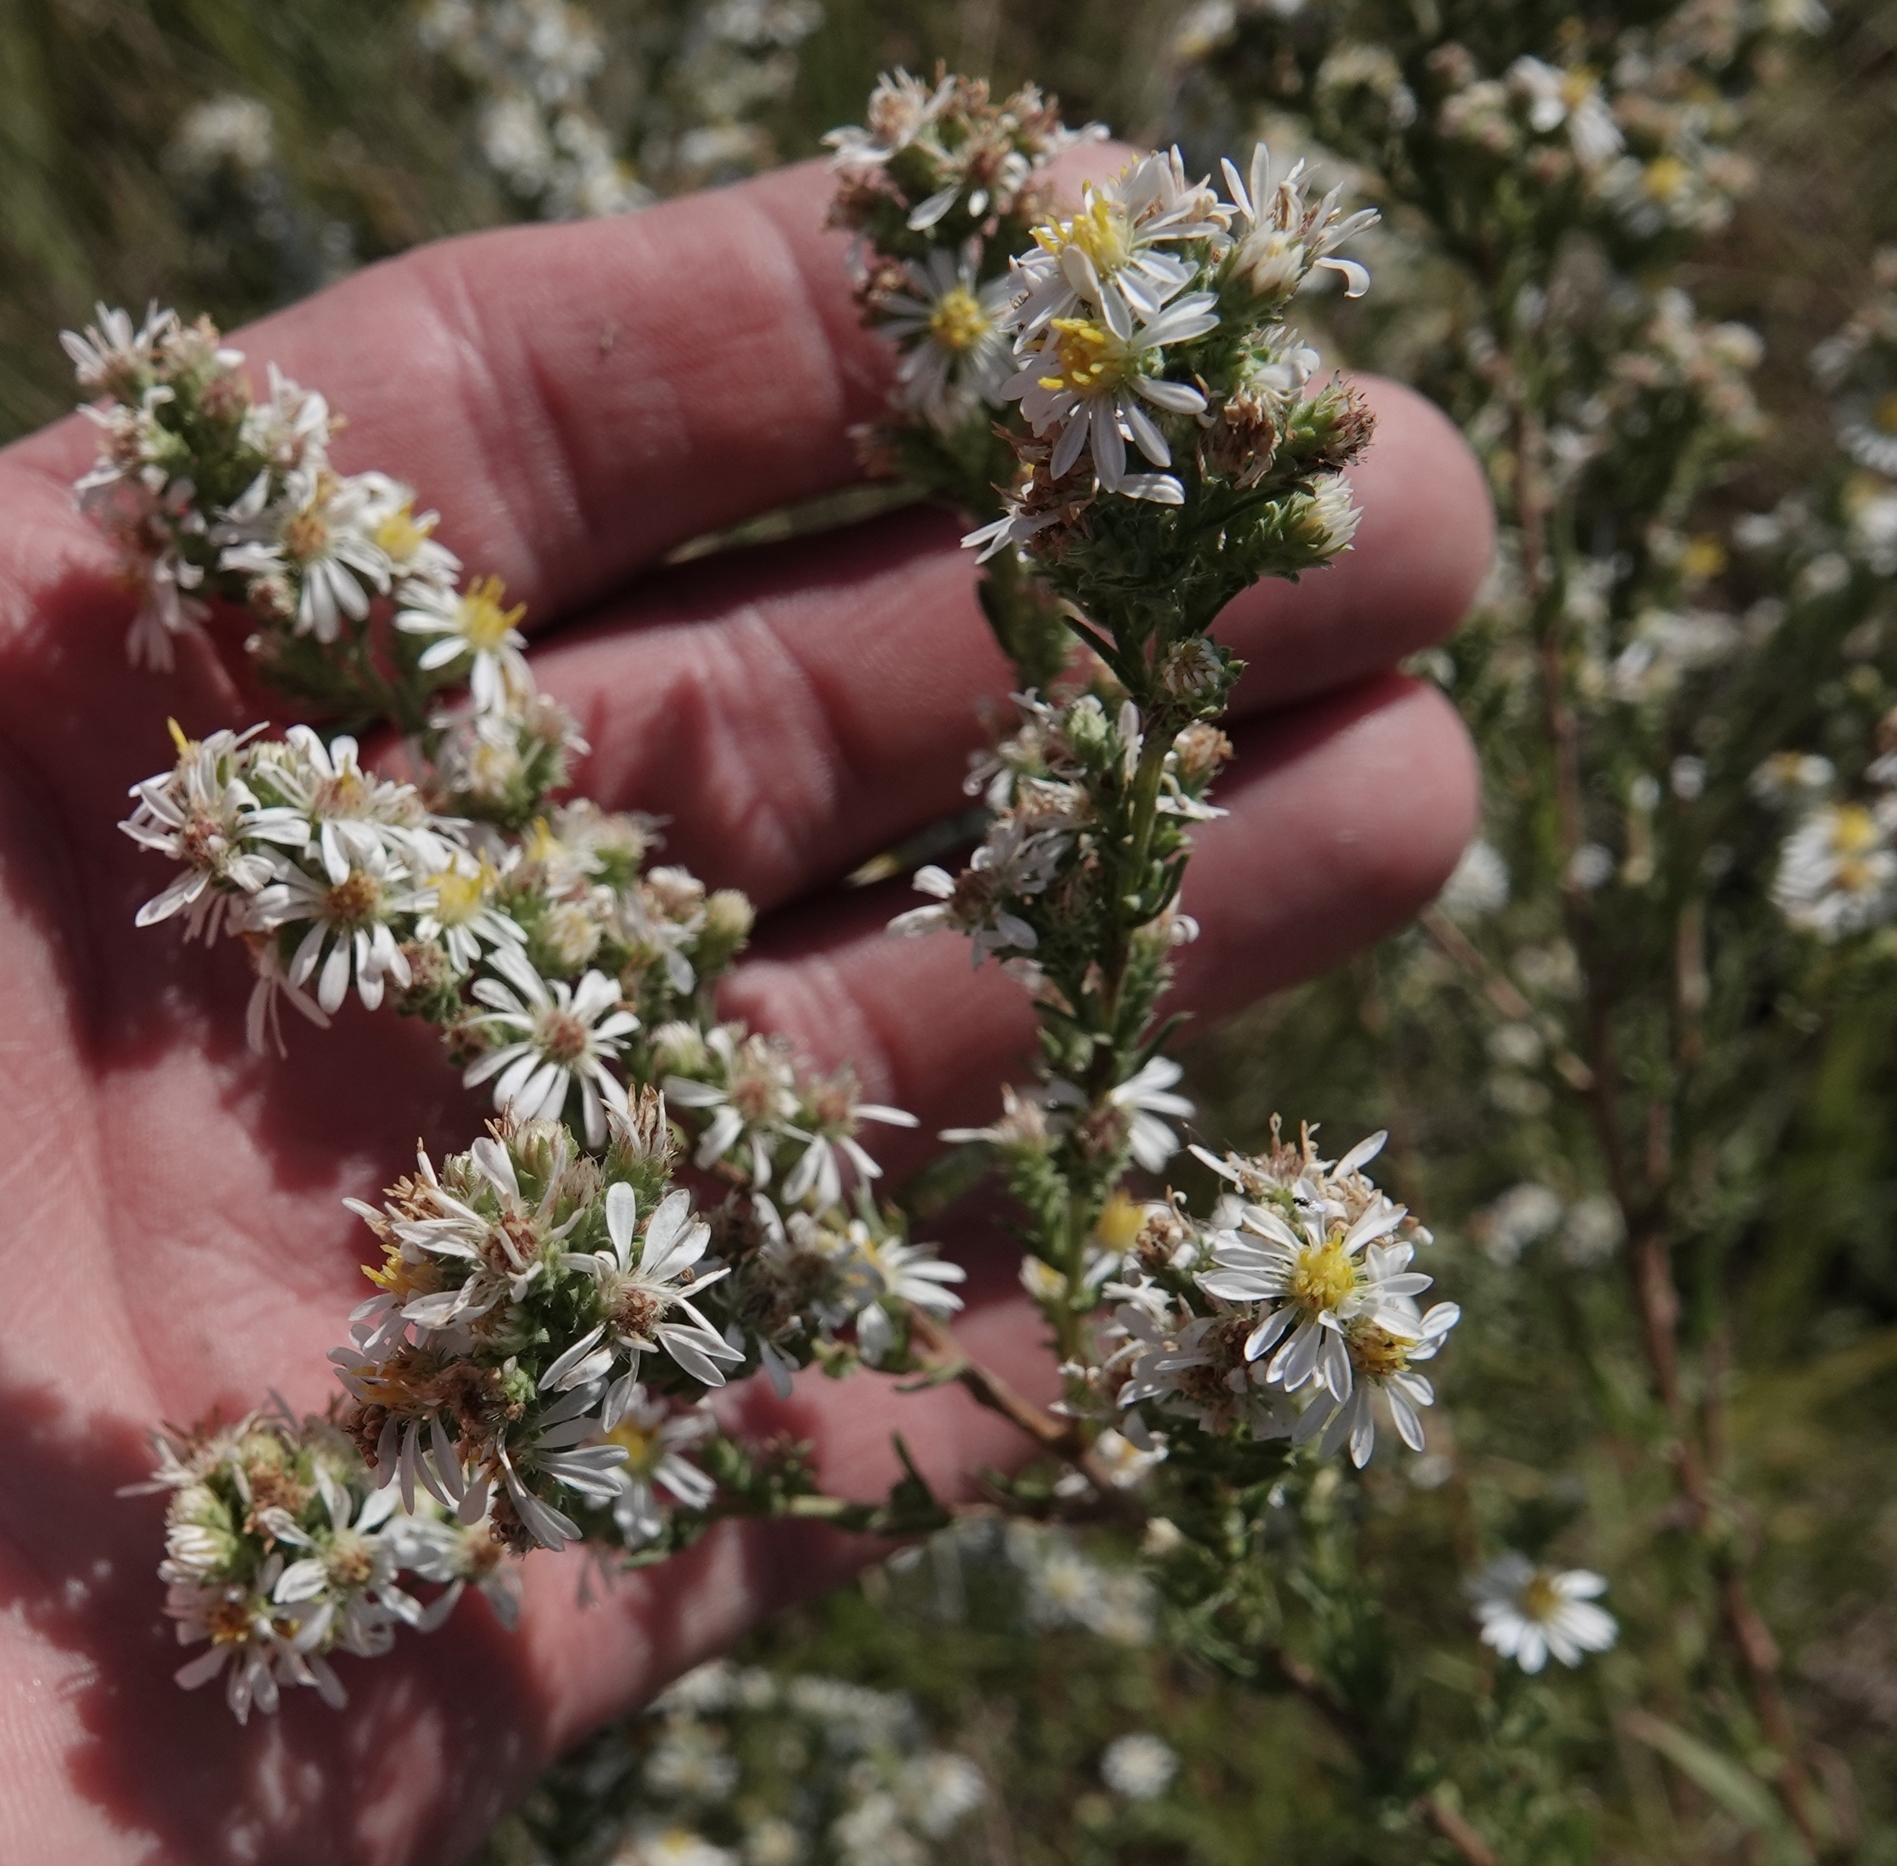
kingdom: Plantae
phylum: Tracheophyta
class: Magnoliopsida
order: Asterales
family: Asteraceae
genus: Symphyotrichum
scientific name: Symphyotrichum ericoides
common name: Heath aster
